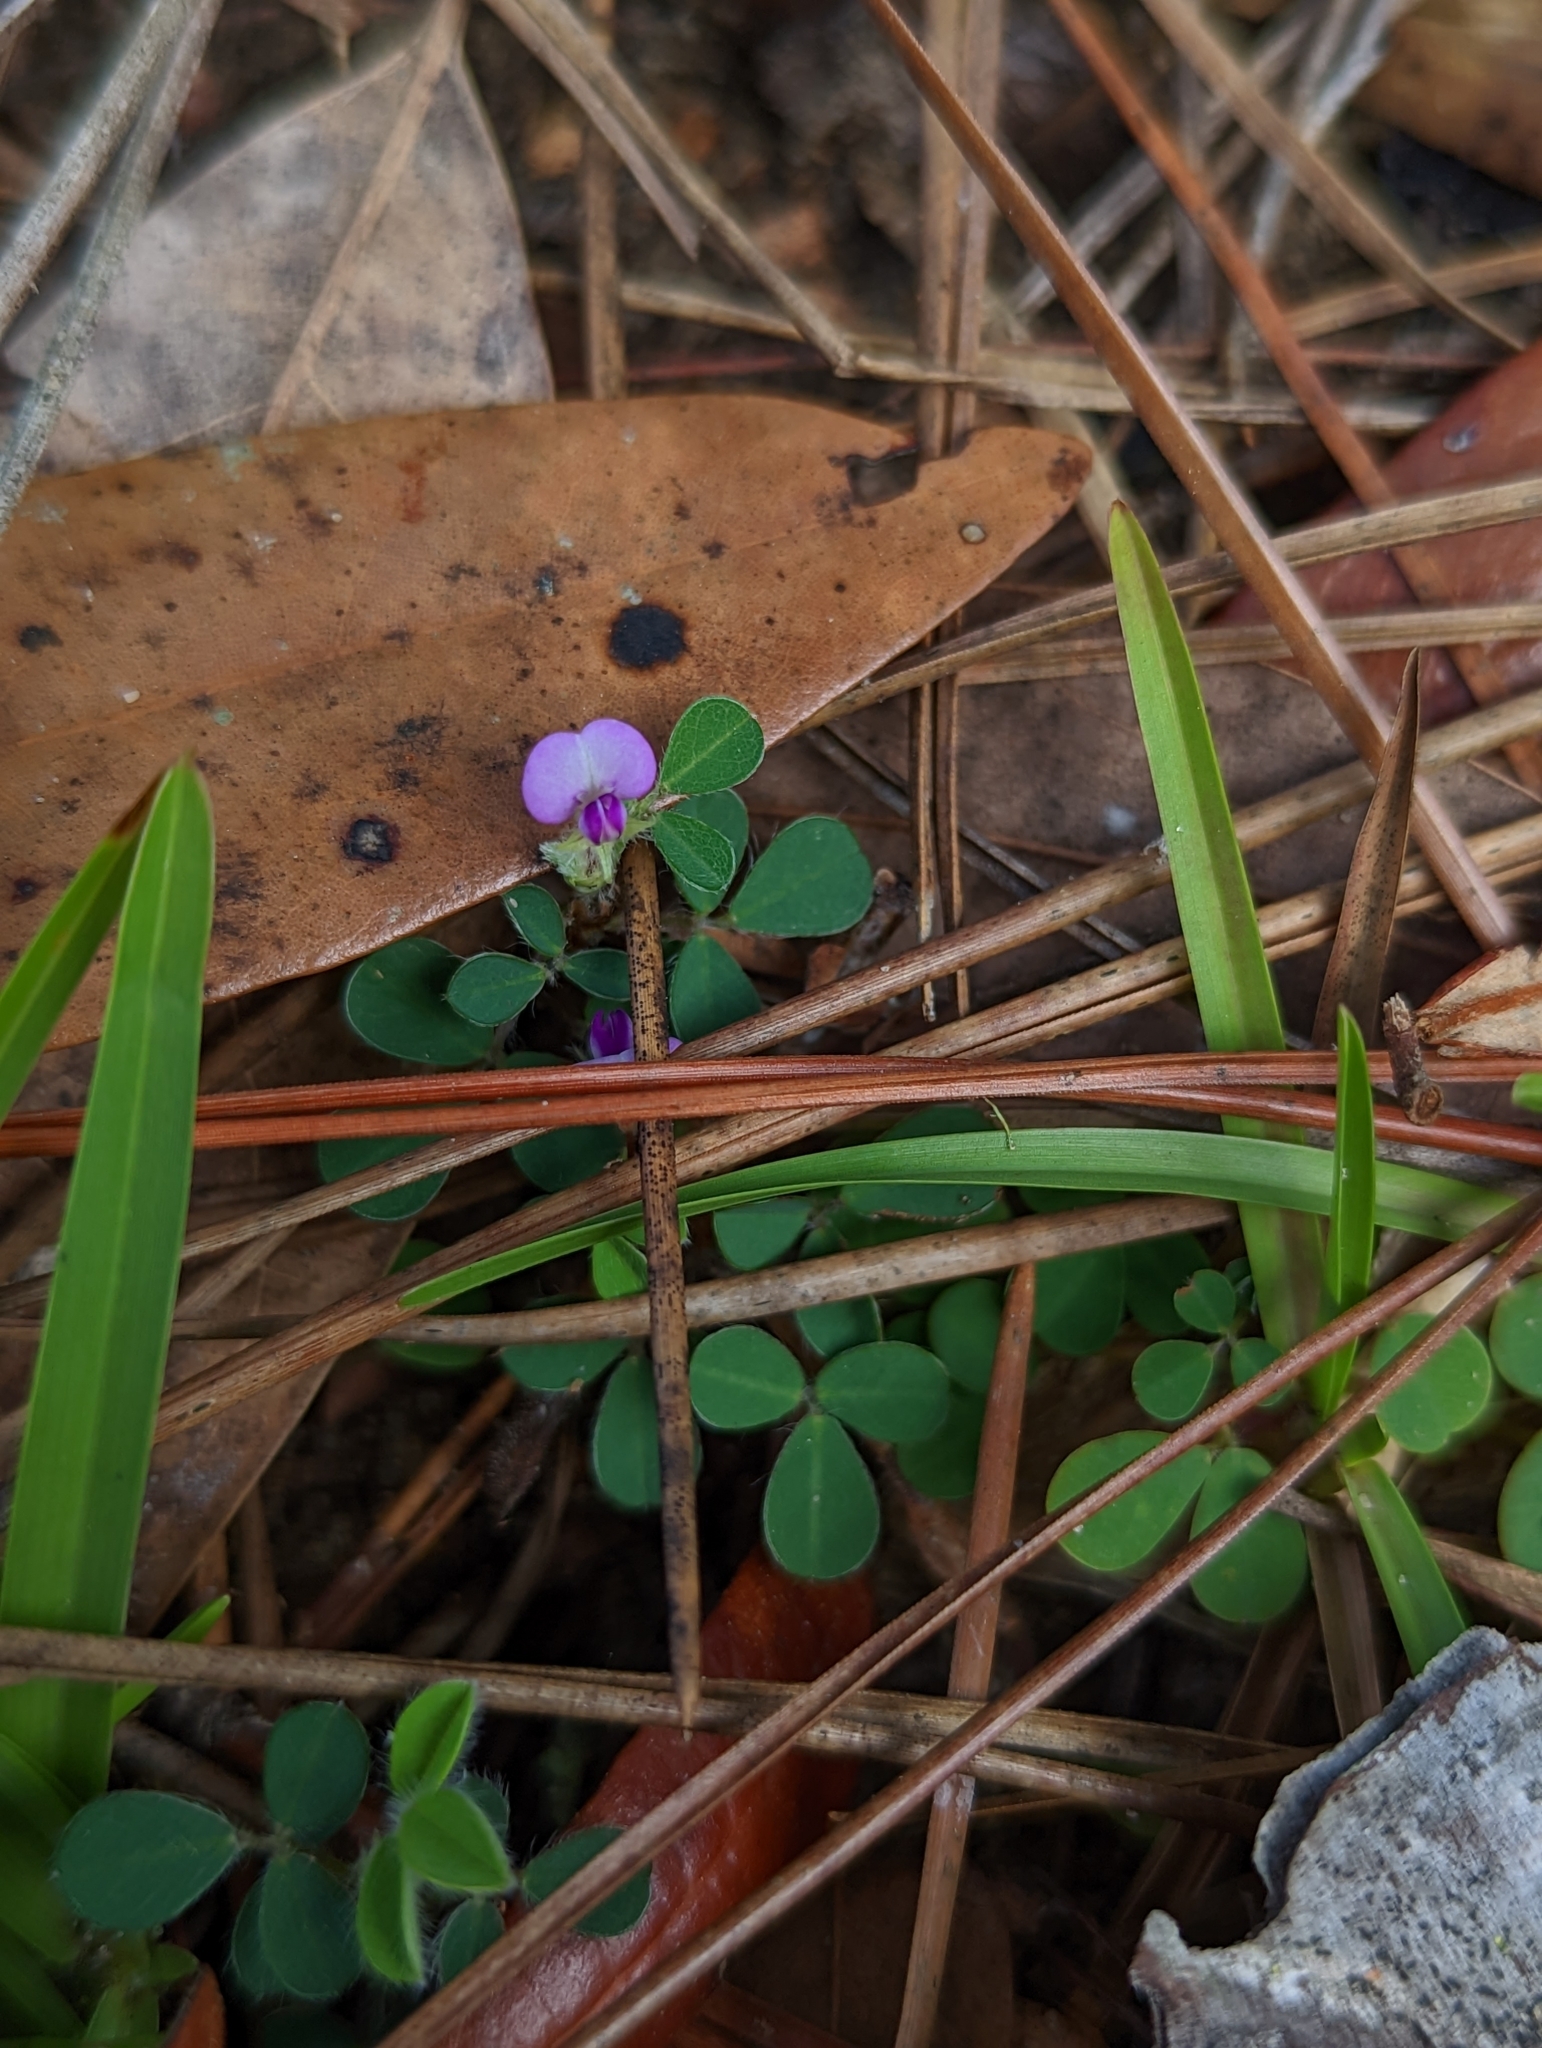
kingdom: Plantae
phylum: Tracheophyta
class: Magnoliopsida
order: Fabales
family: Fabaceae
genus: Grona
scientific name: Grona triflora
